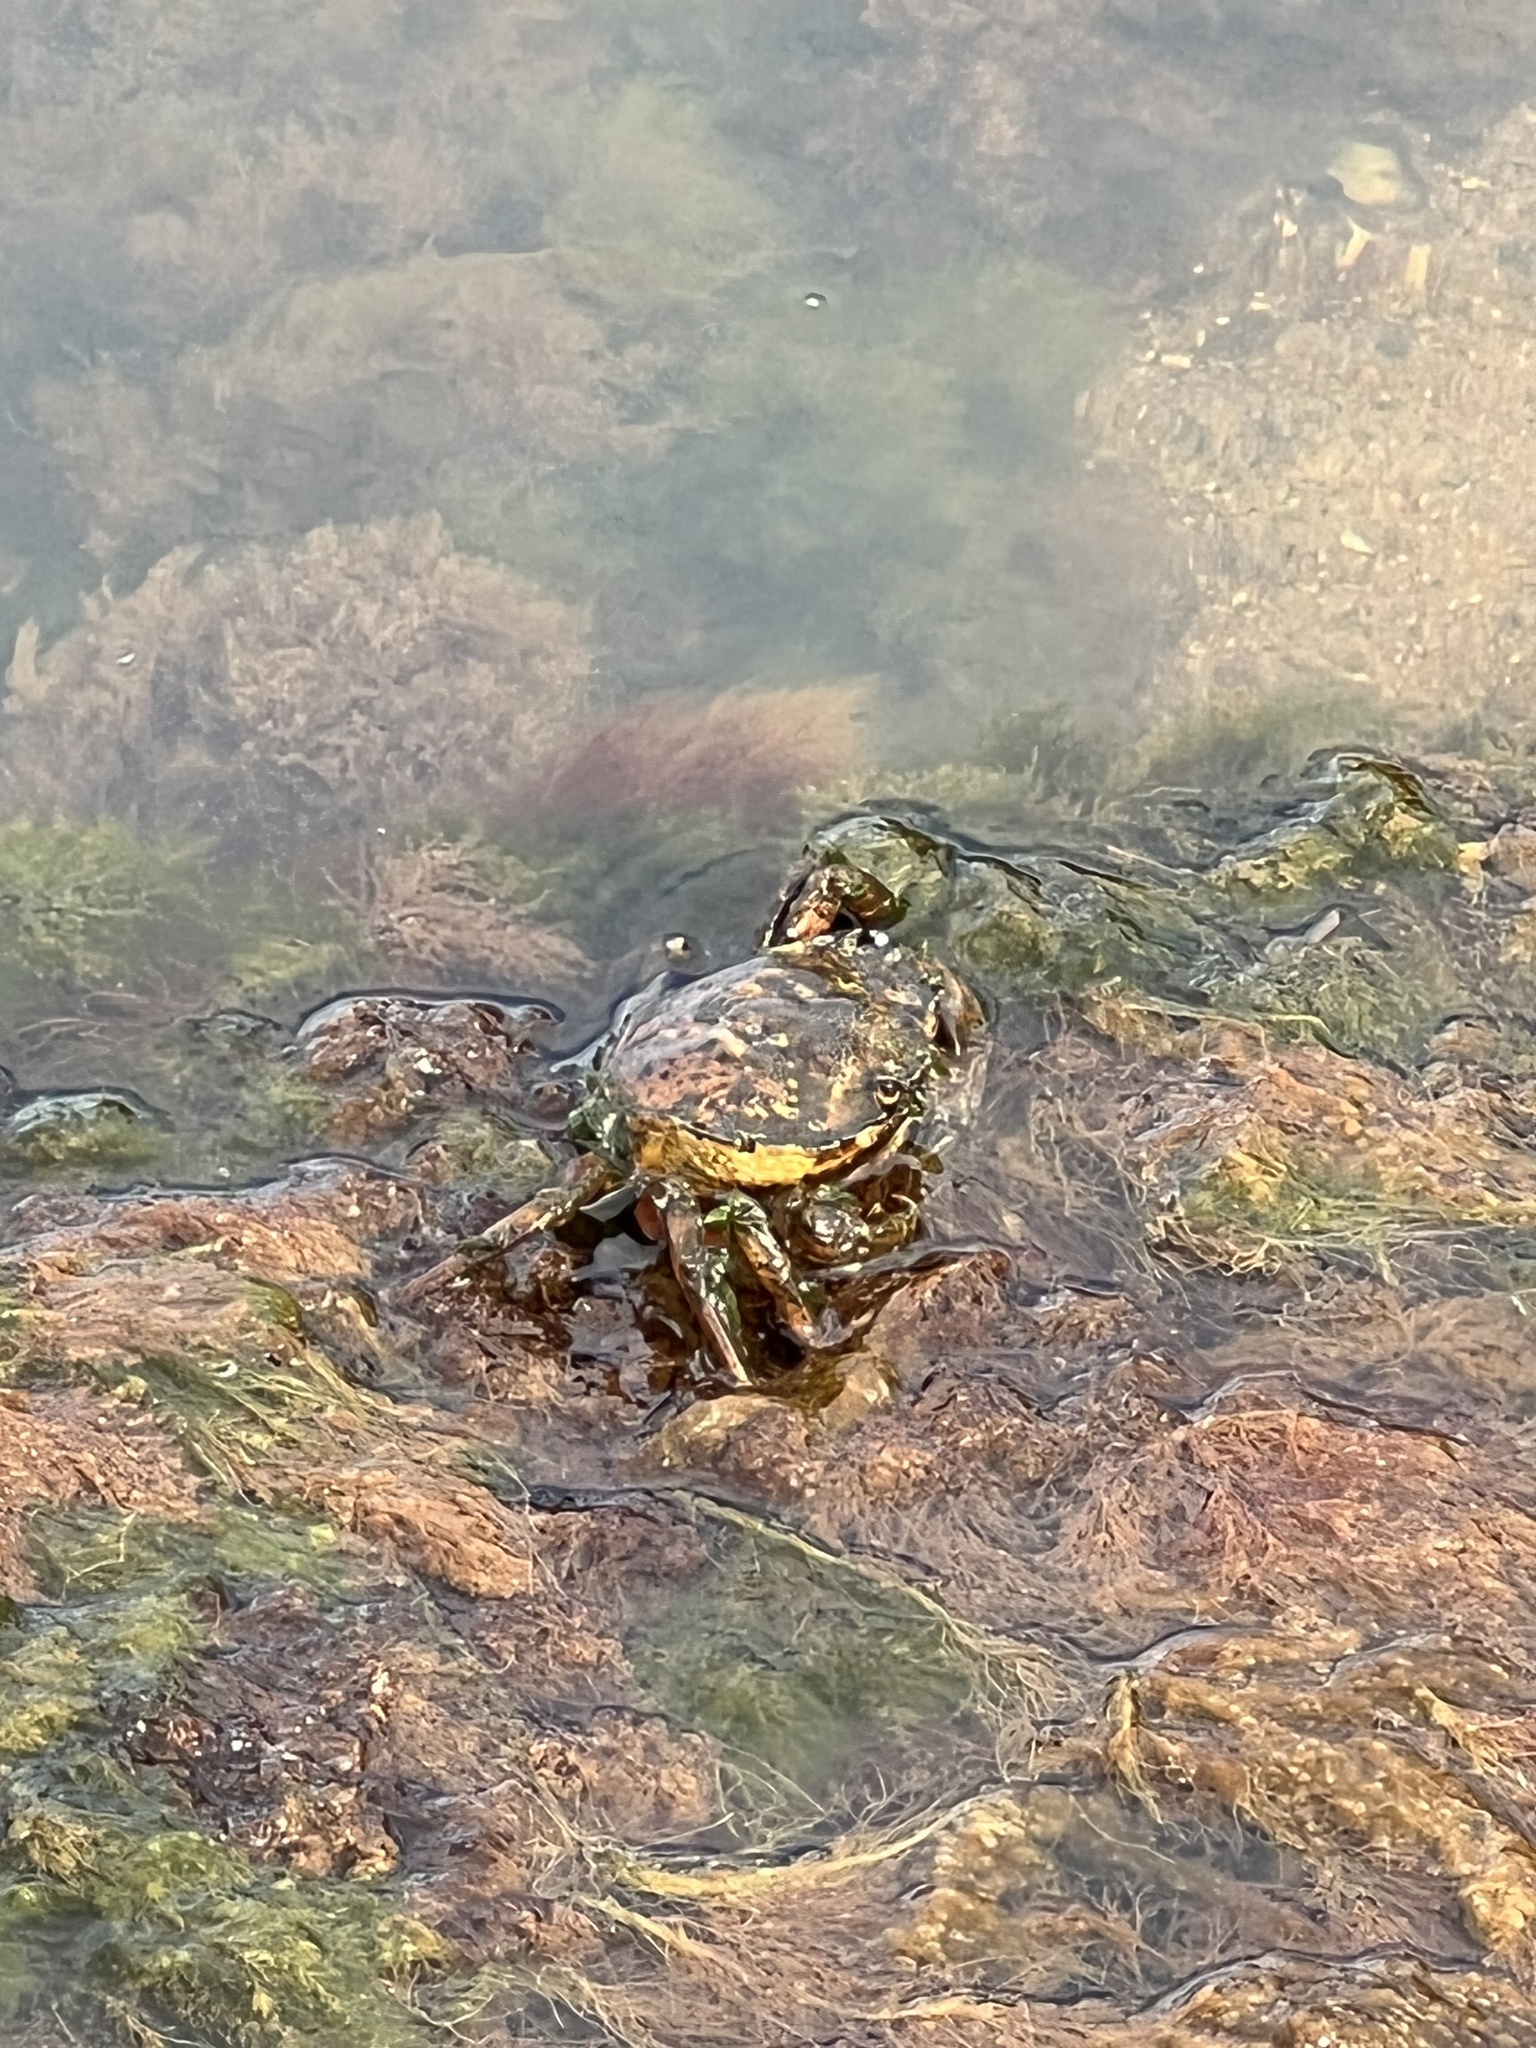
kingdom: Animalia
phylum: Arthropoda
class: Malacostraca
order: Decapoda
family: Carcinidae
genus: Carcinus
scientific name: Carcinus maenas
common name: European green crab
